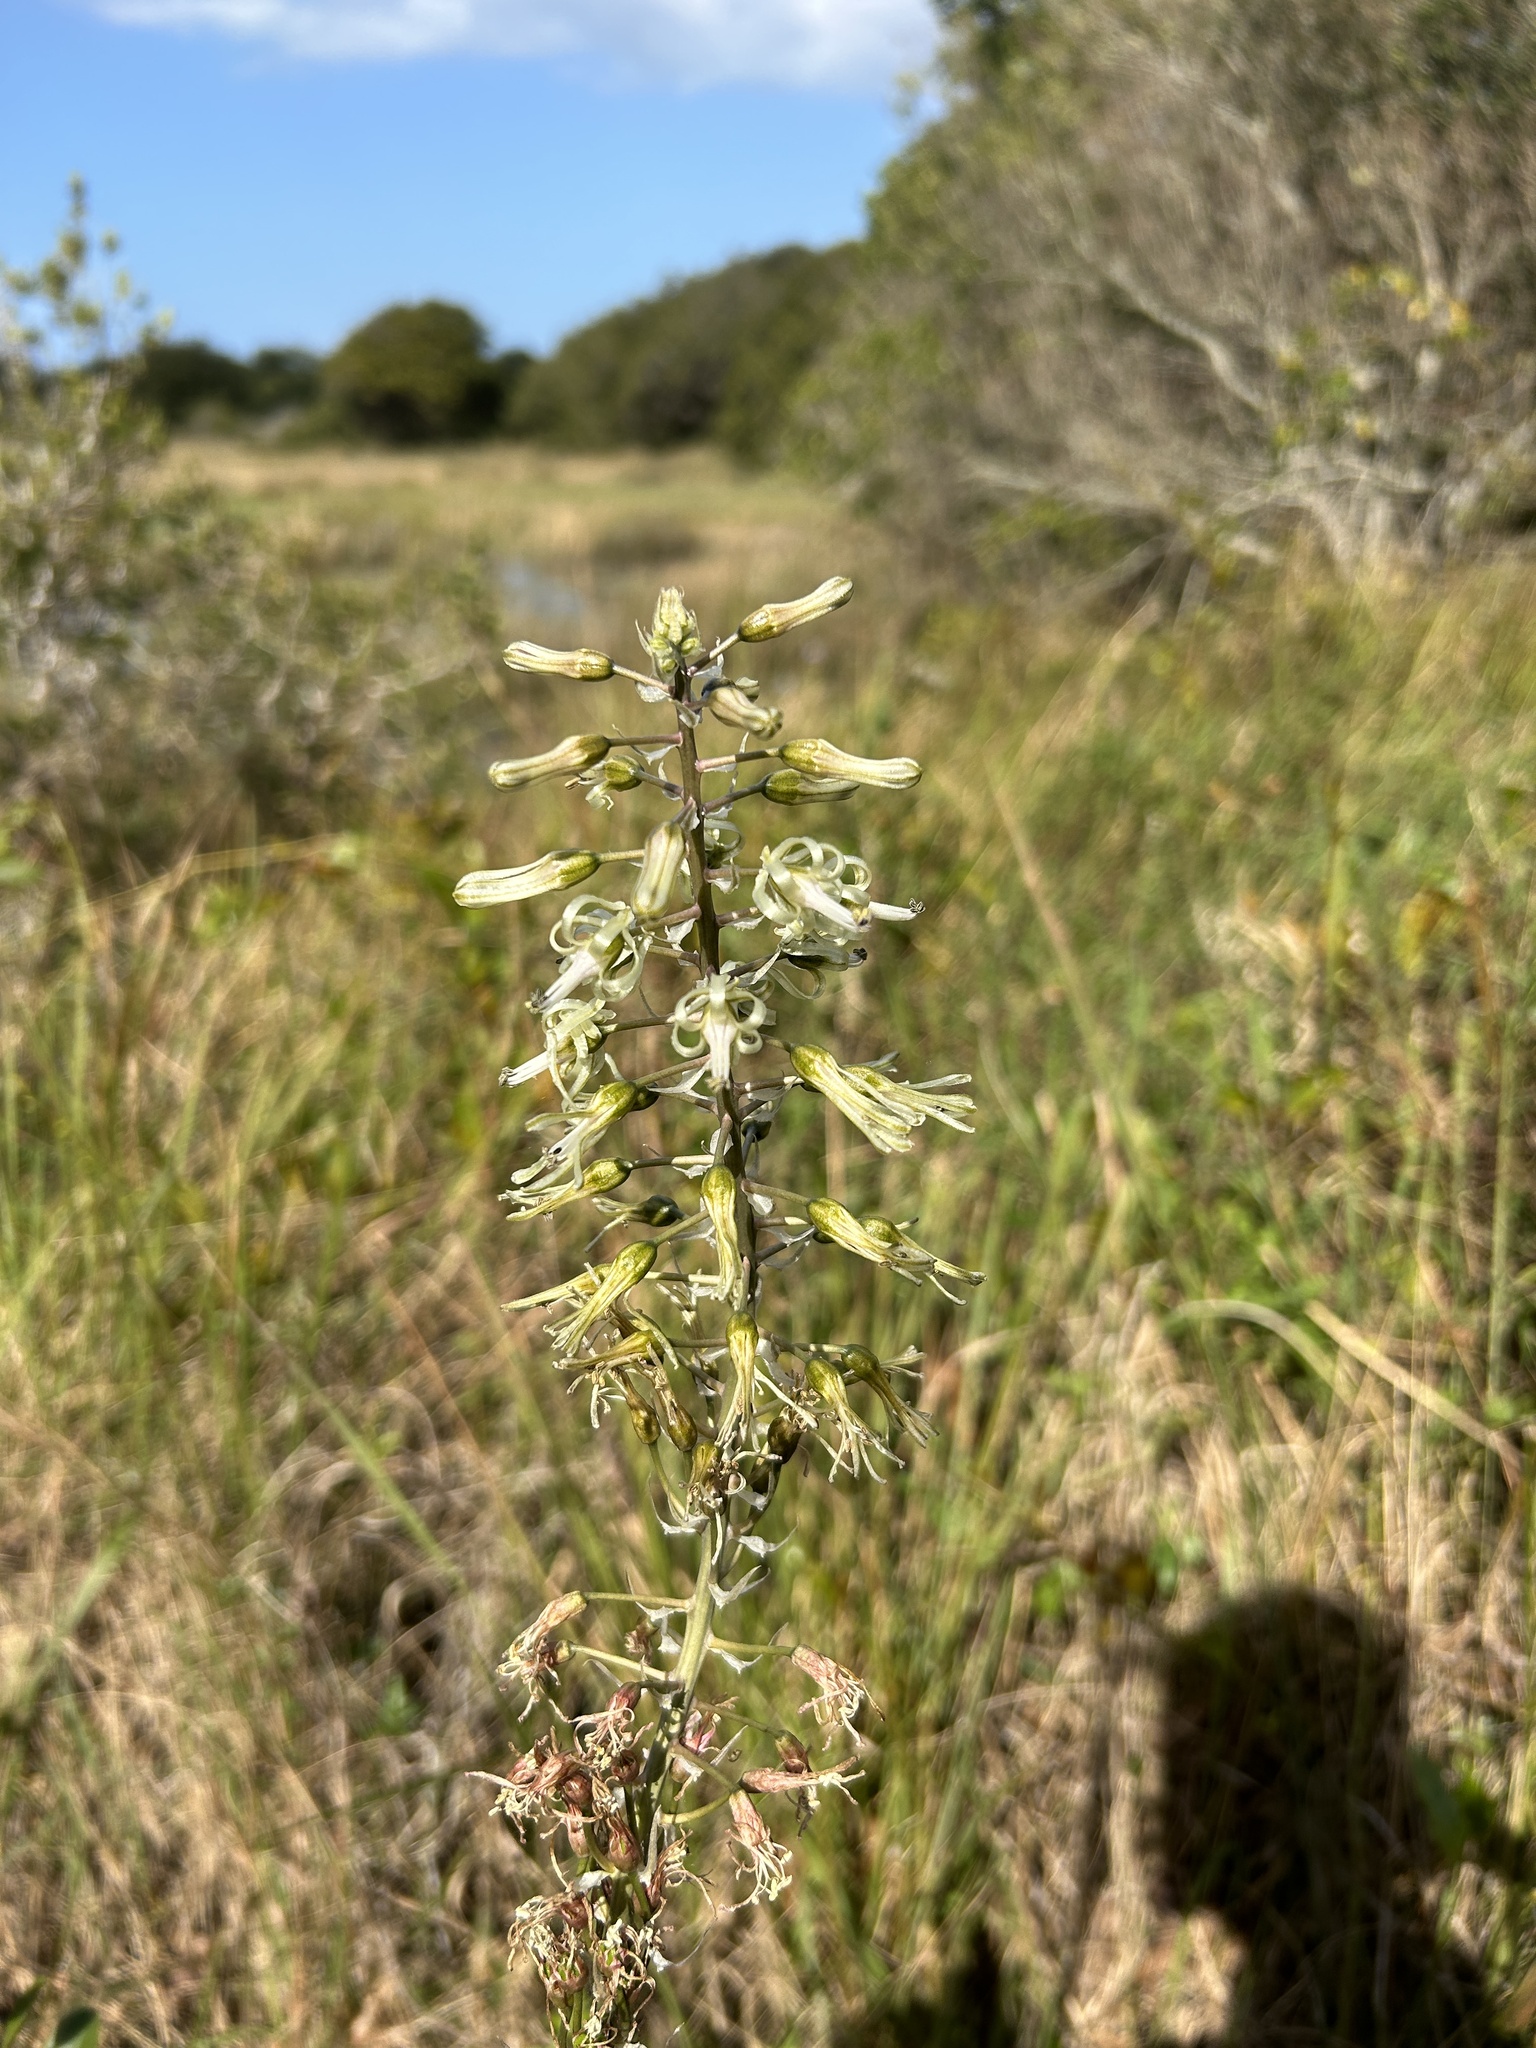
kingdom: Plantae
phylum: Tracheophyta
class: Liliopsida
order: Asparagales
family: Asparagaceae
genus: Drimia
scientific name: Drimia elata
